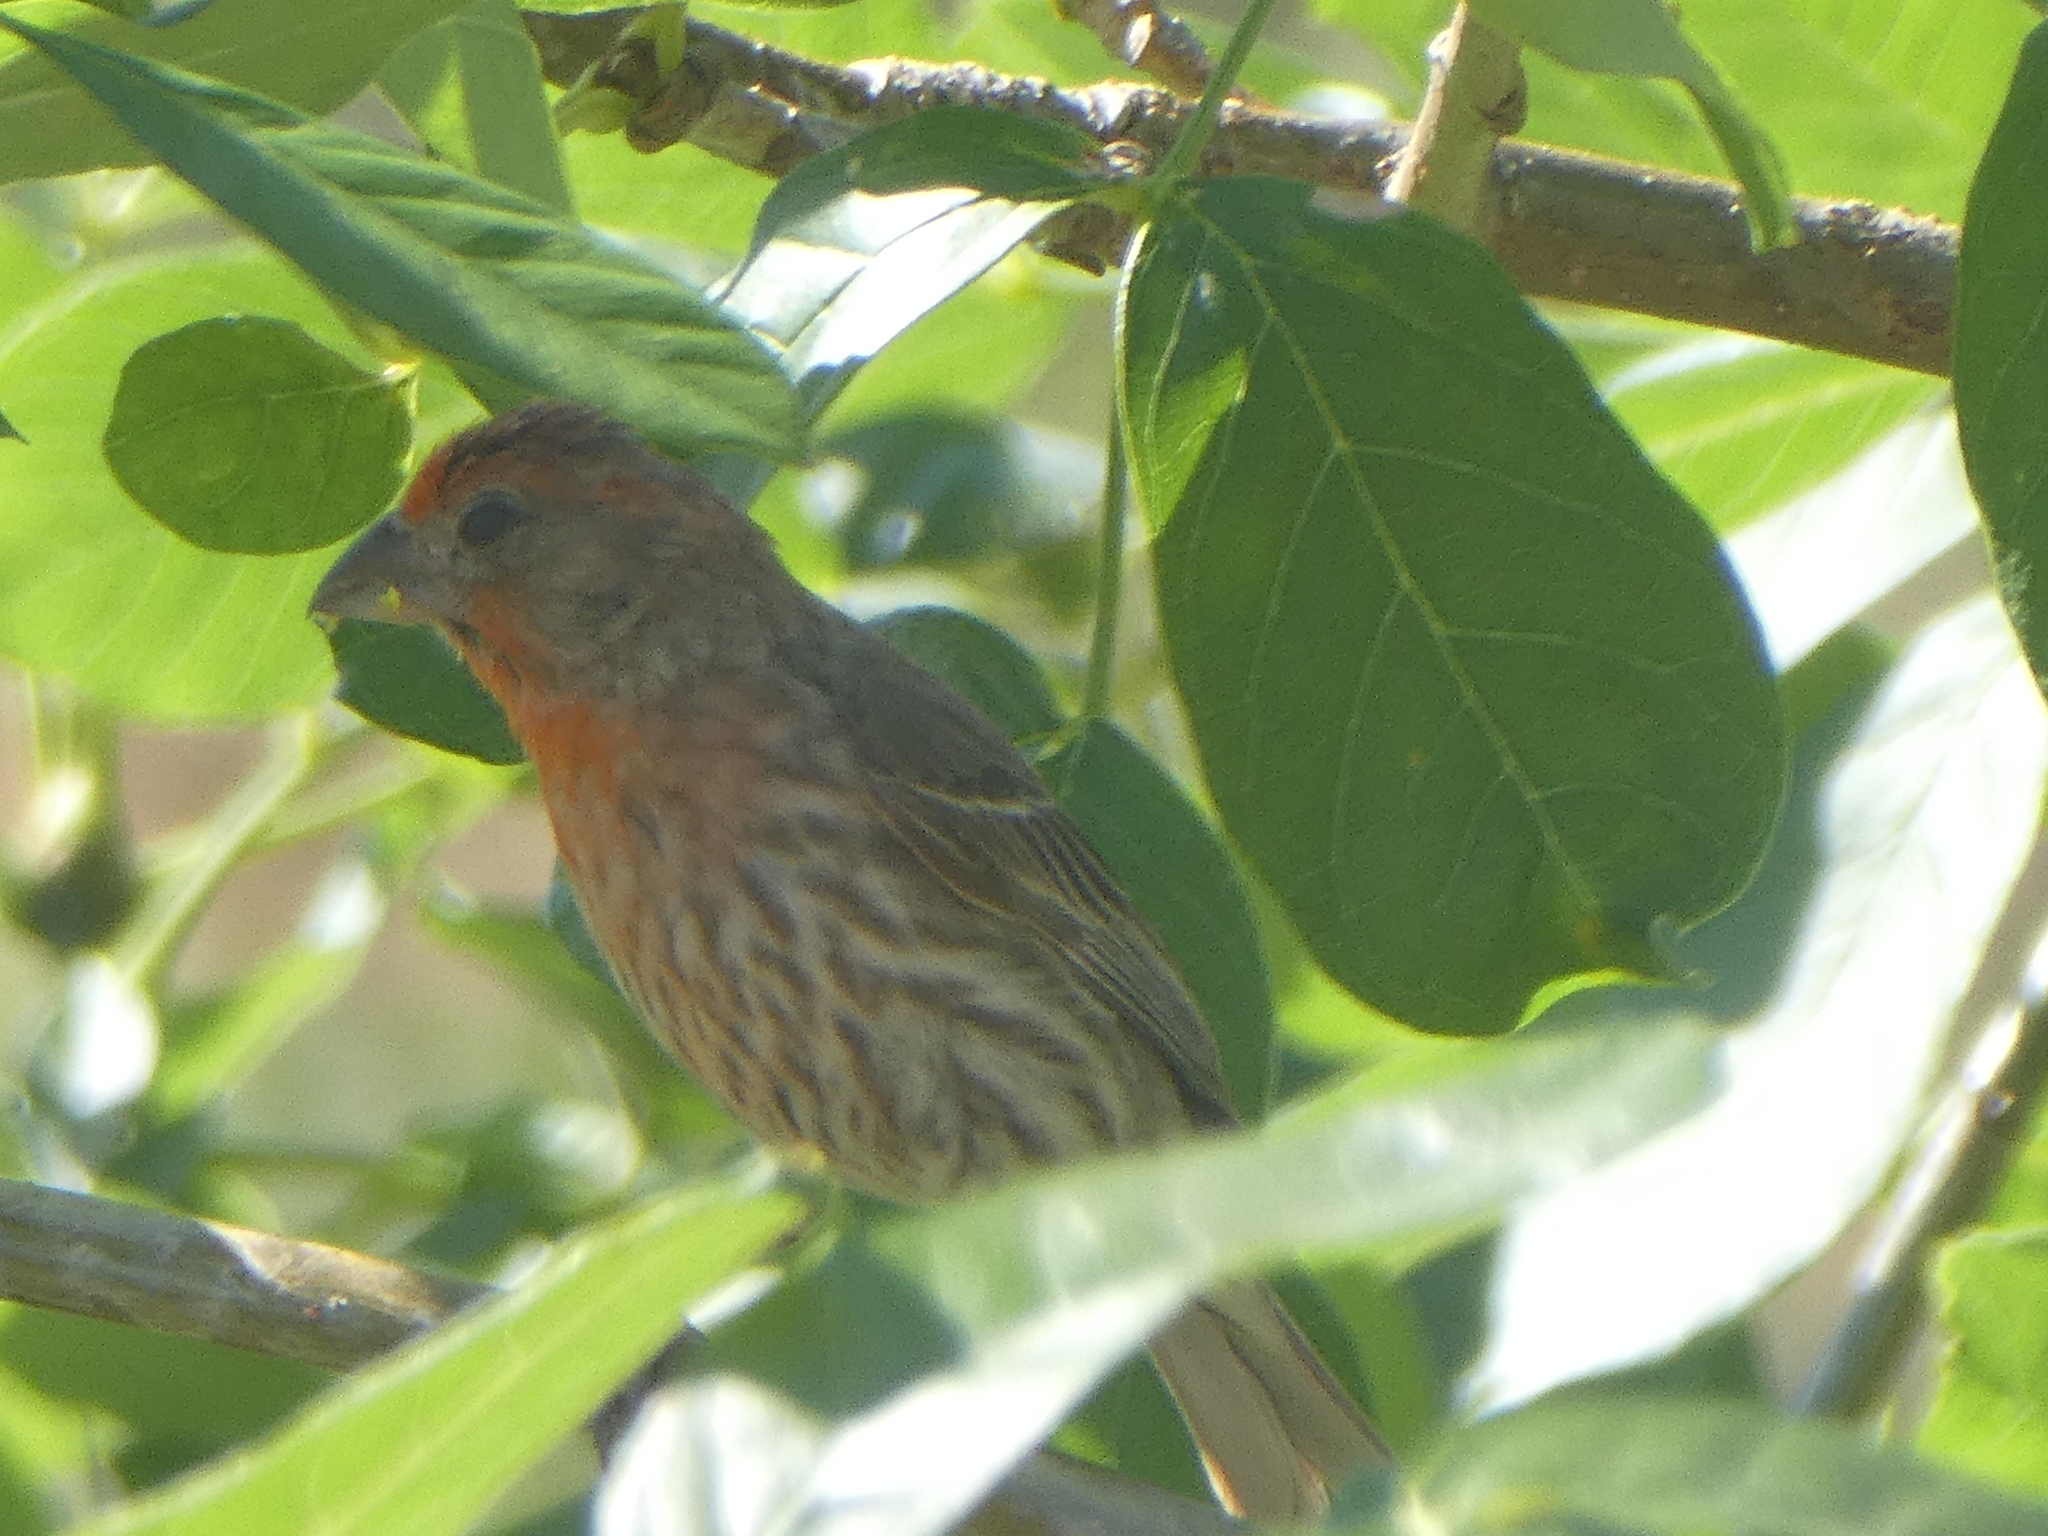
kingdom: Animalia
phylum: Chordata
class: Aves
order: Passeriformes
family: Fringillidae
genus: Haemorhous
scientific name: Haemorhous mexicanus
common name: House finch
